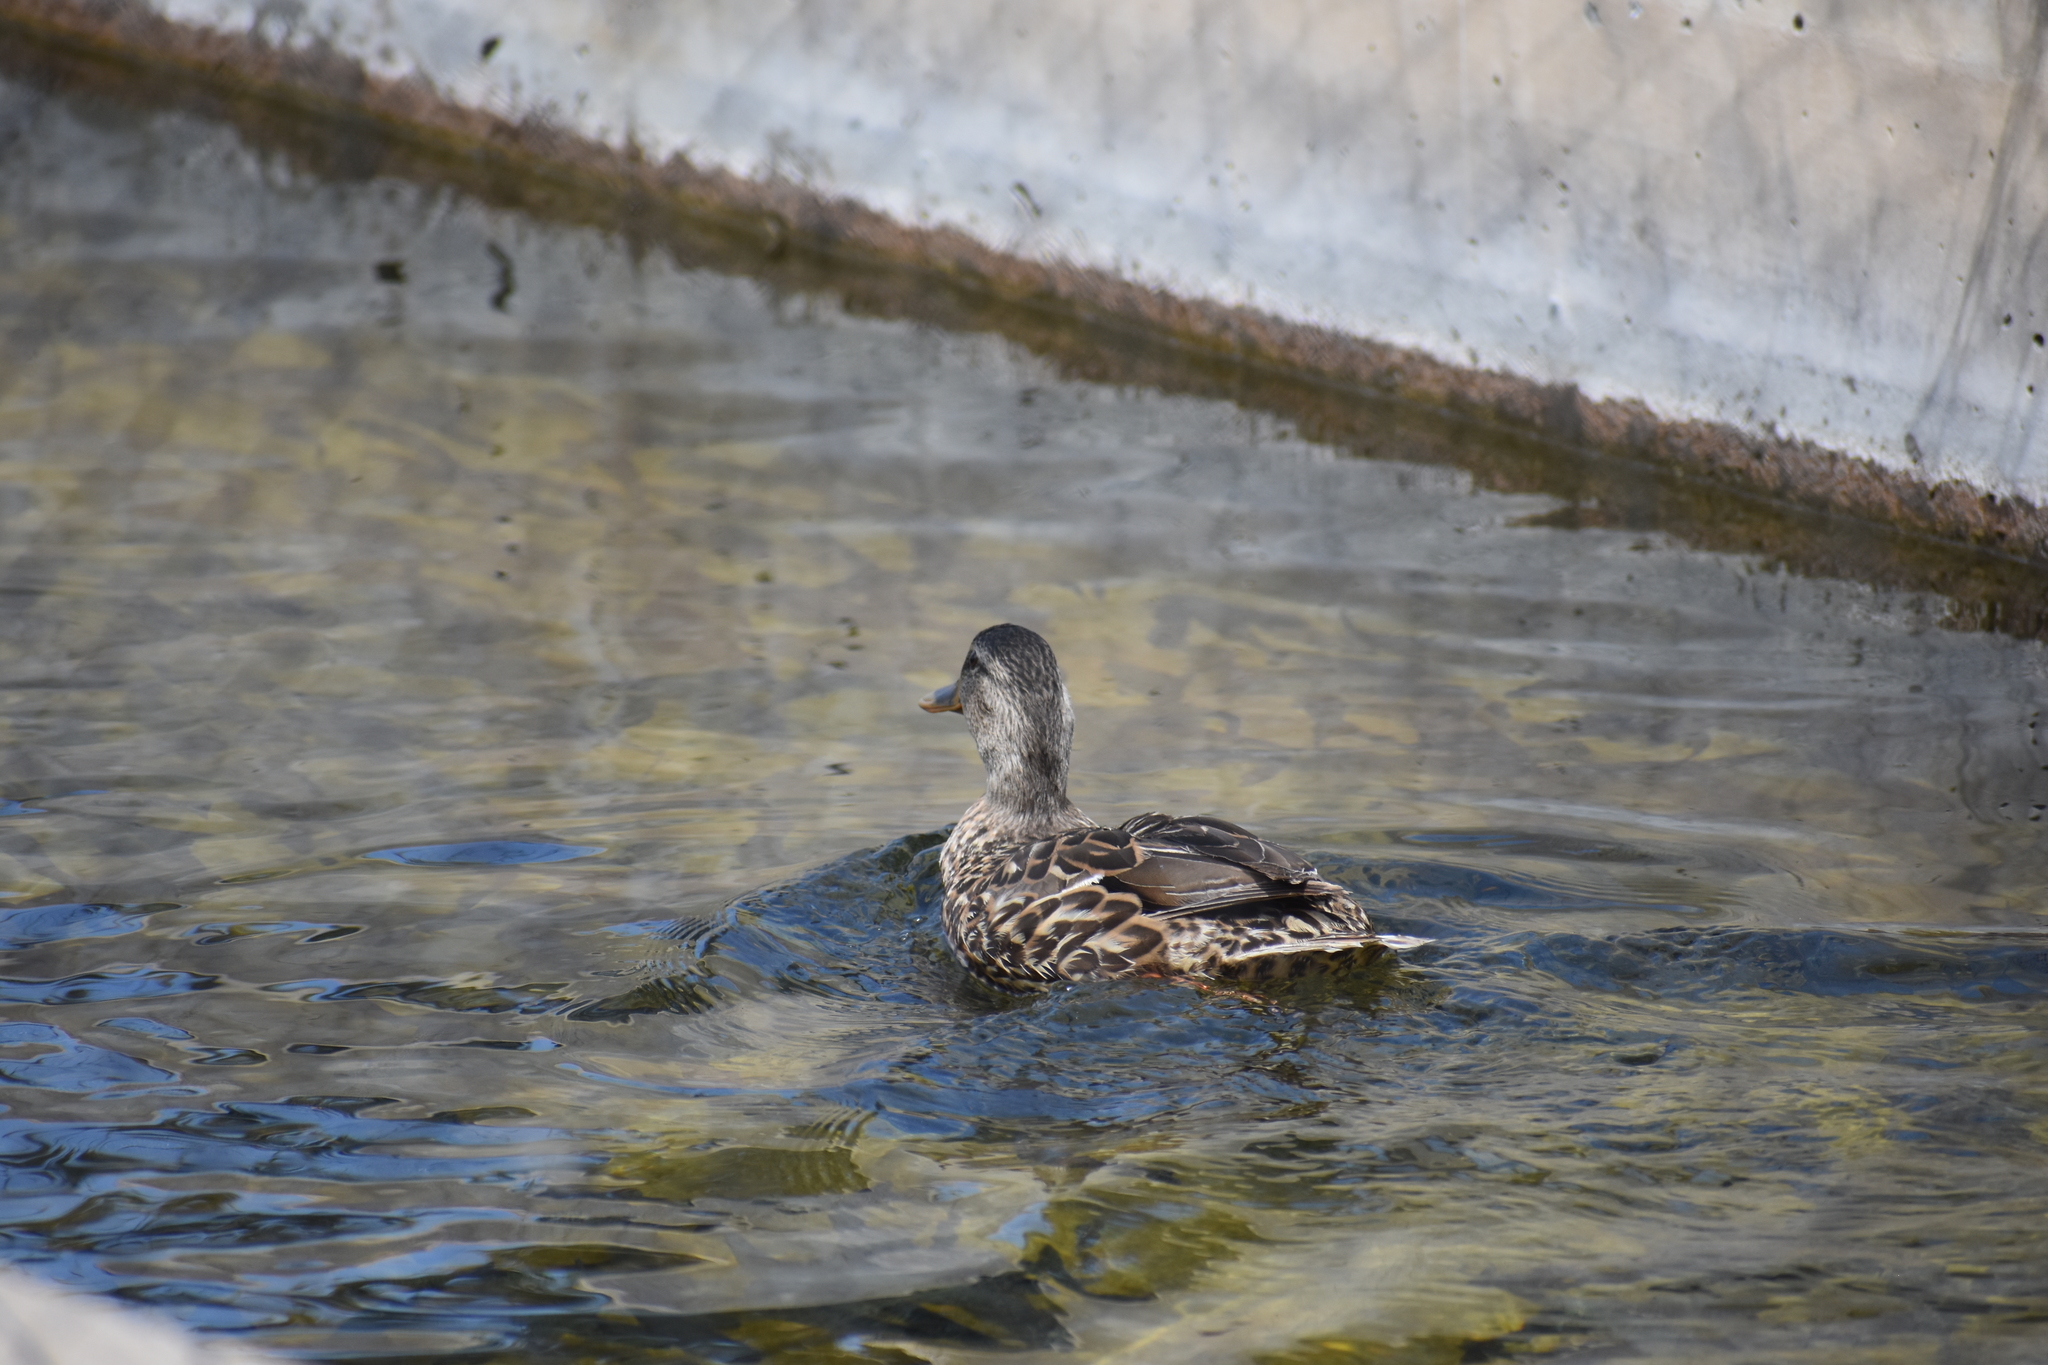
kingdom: Animalia
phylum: Chordata
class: Aves
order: Anseriformes
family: Anatidae
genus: Anas
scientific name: Anas platyrhynchos
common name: Mallard
